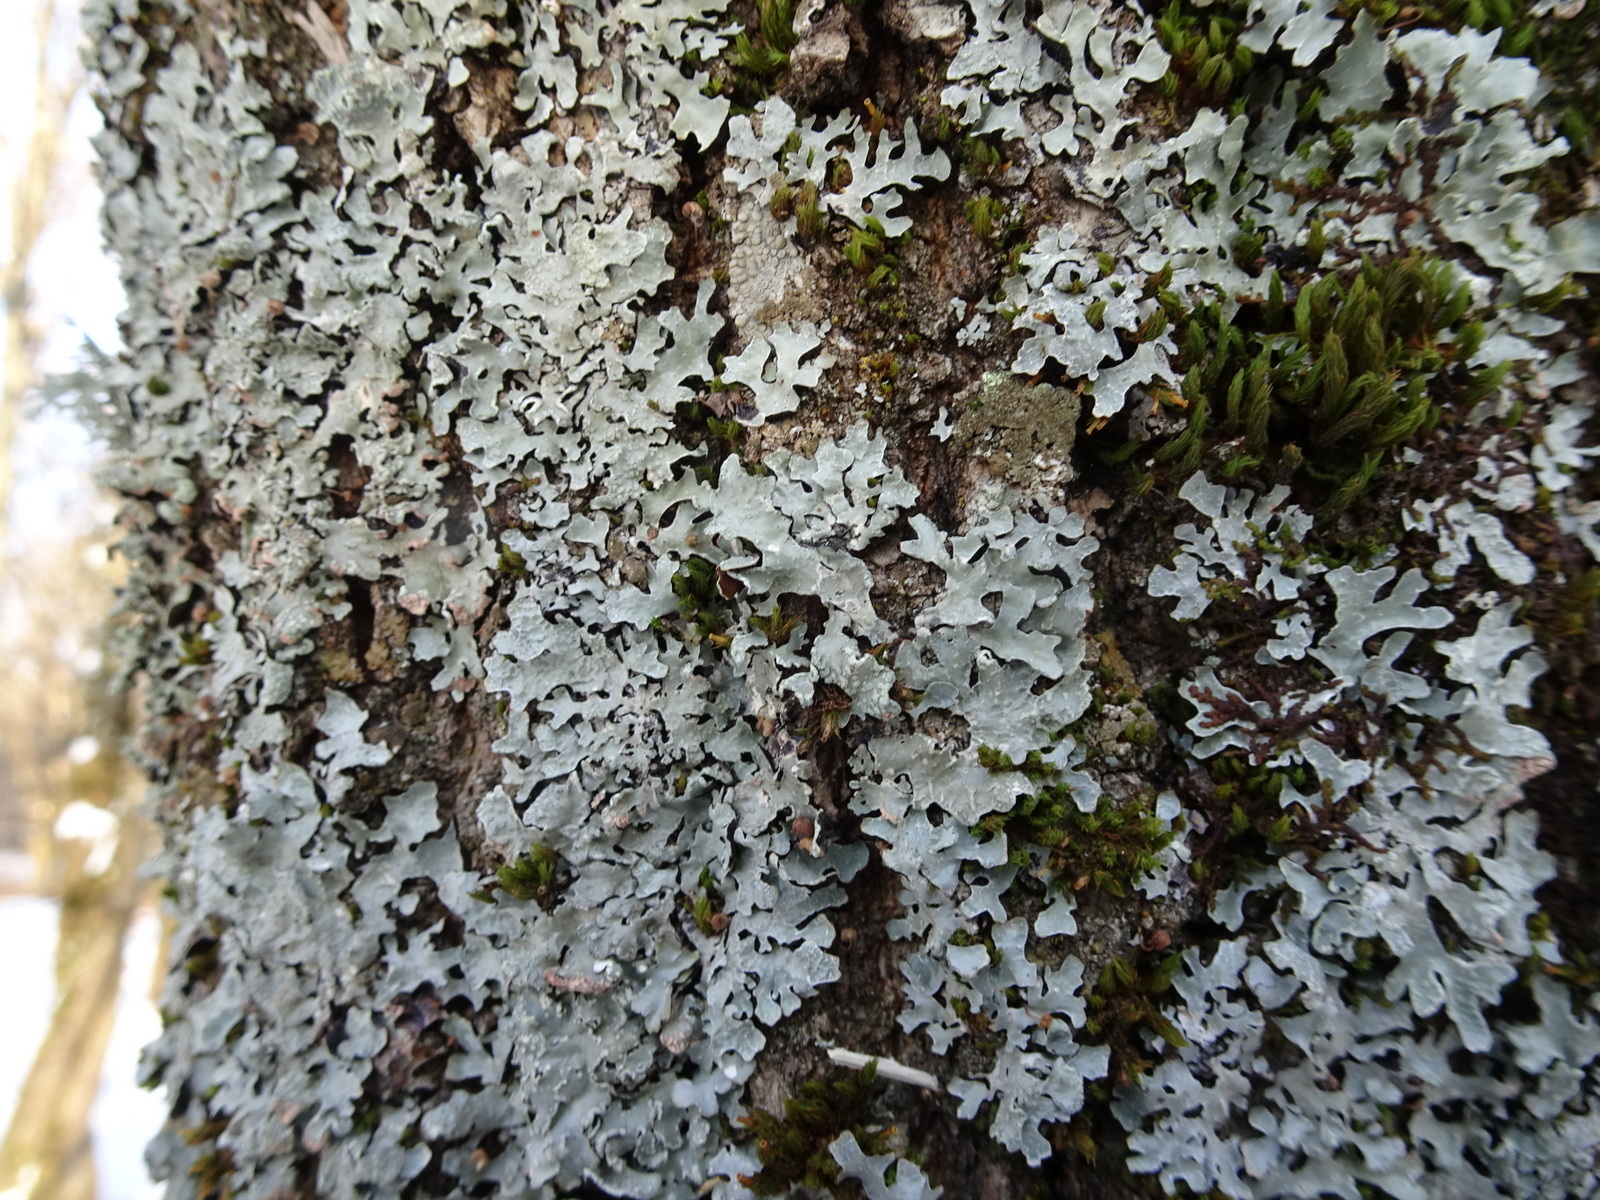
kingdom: Fungi
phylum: Ascomycota
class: Lecanoromycetes
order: Lecanorales
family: Parmeliaceae
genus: Parmelia
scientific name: Parmelia sulcata
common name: Netted shield lichen
